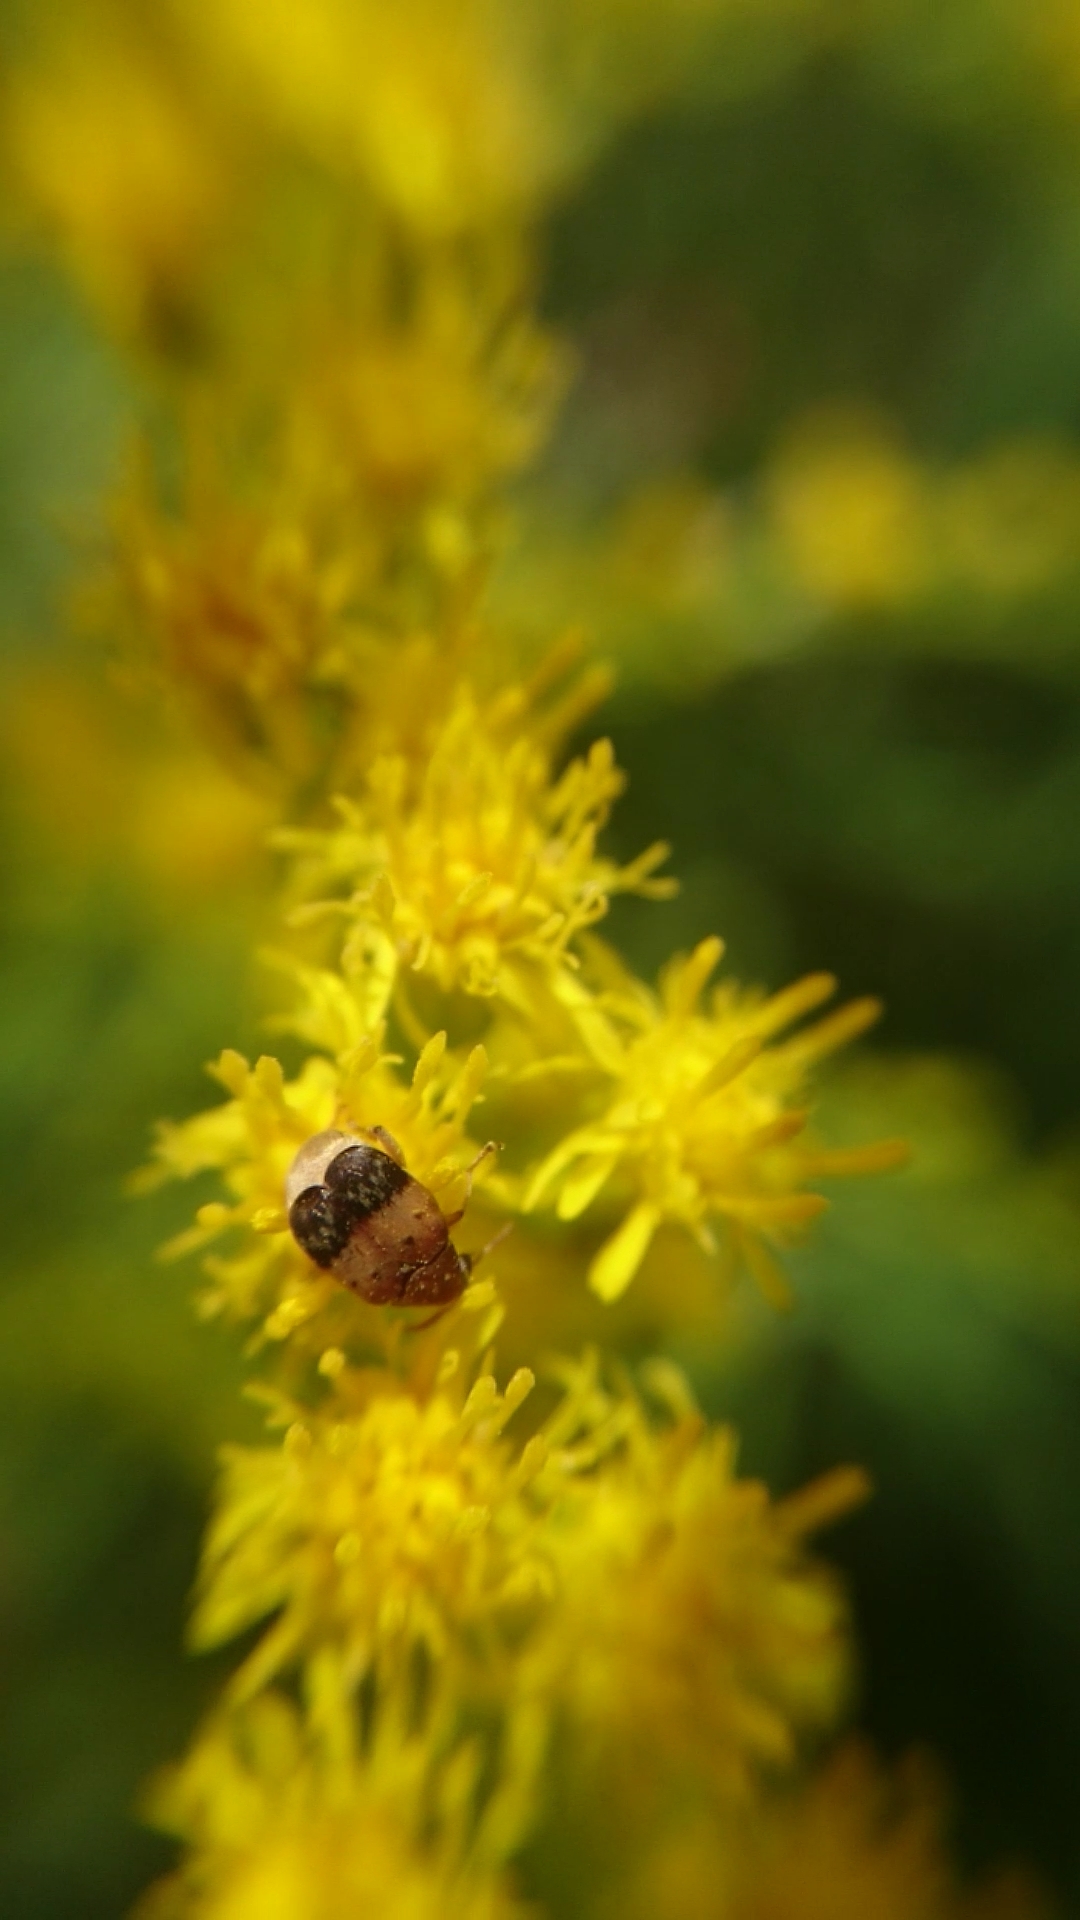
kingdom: Animalia
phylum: Arthropoda
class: Insecta
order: Coleoptera
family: Chrysomelidae
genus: Sennius
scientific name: Sennius
